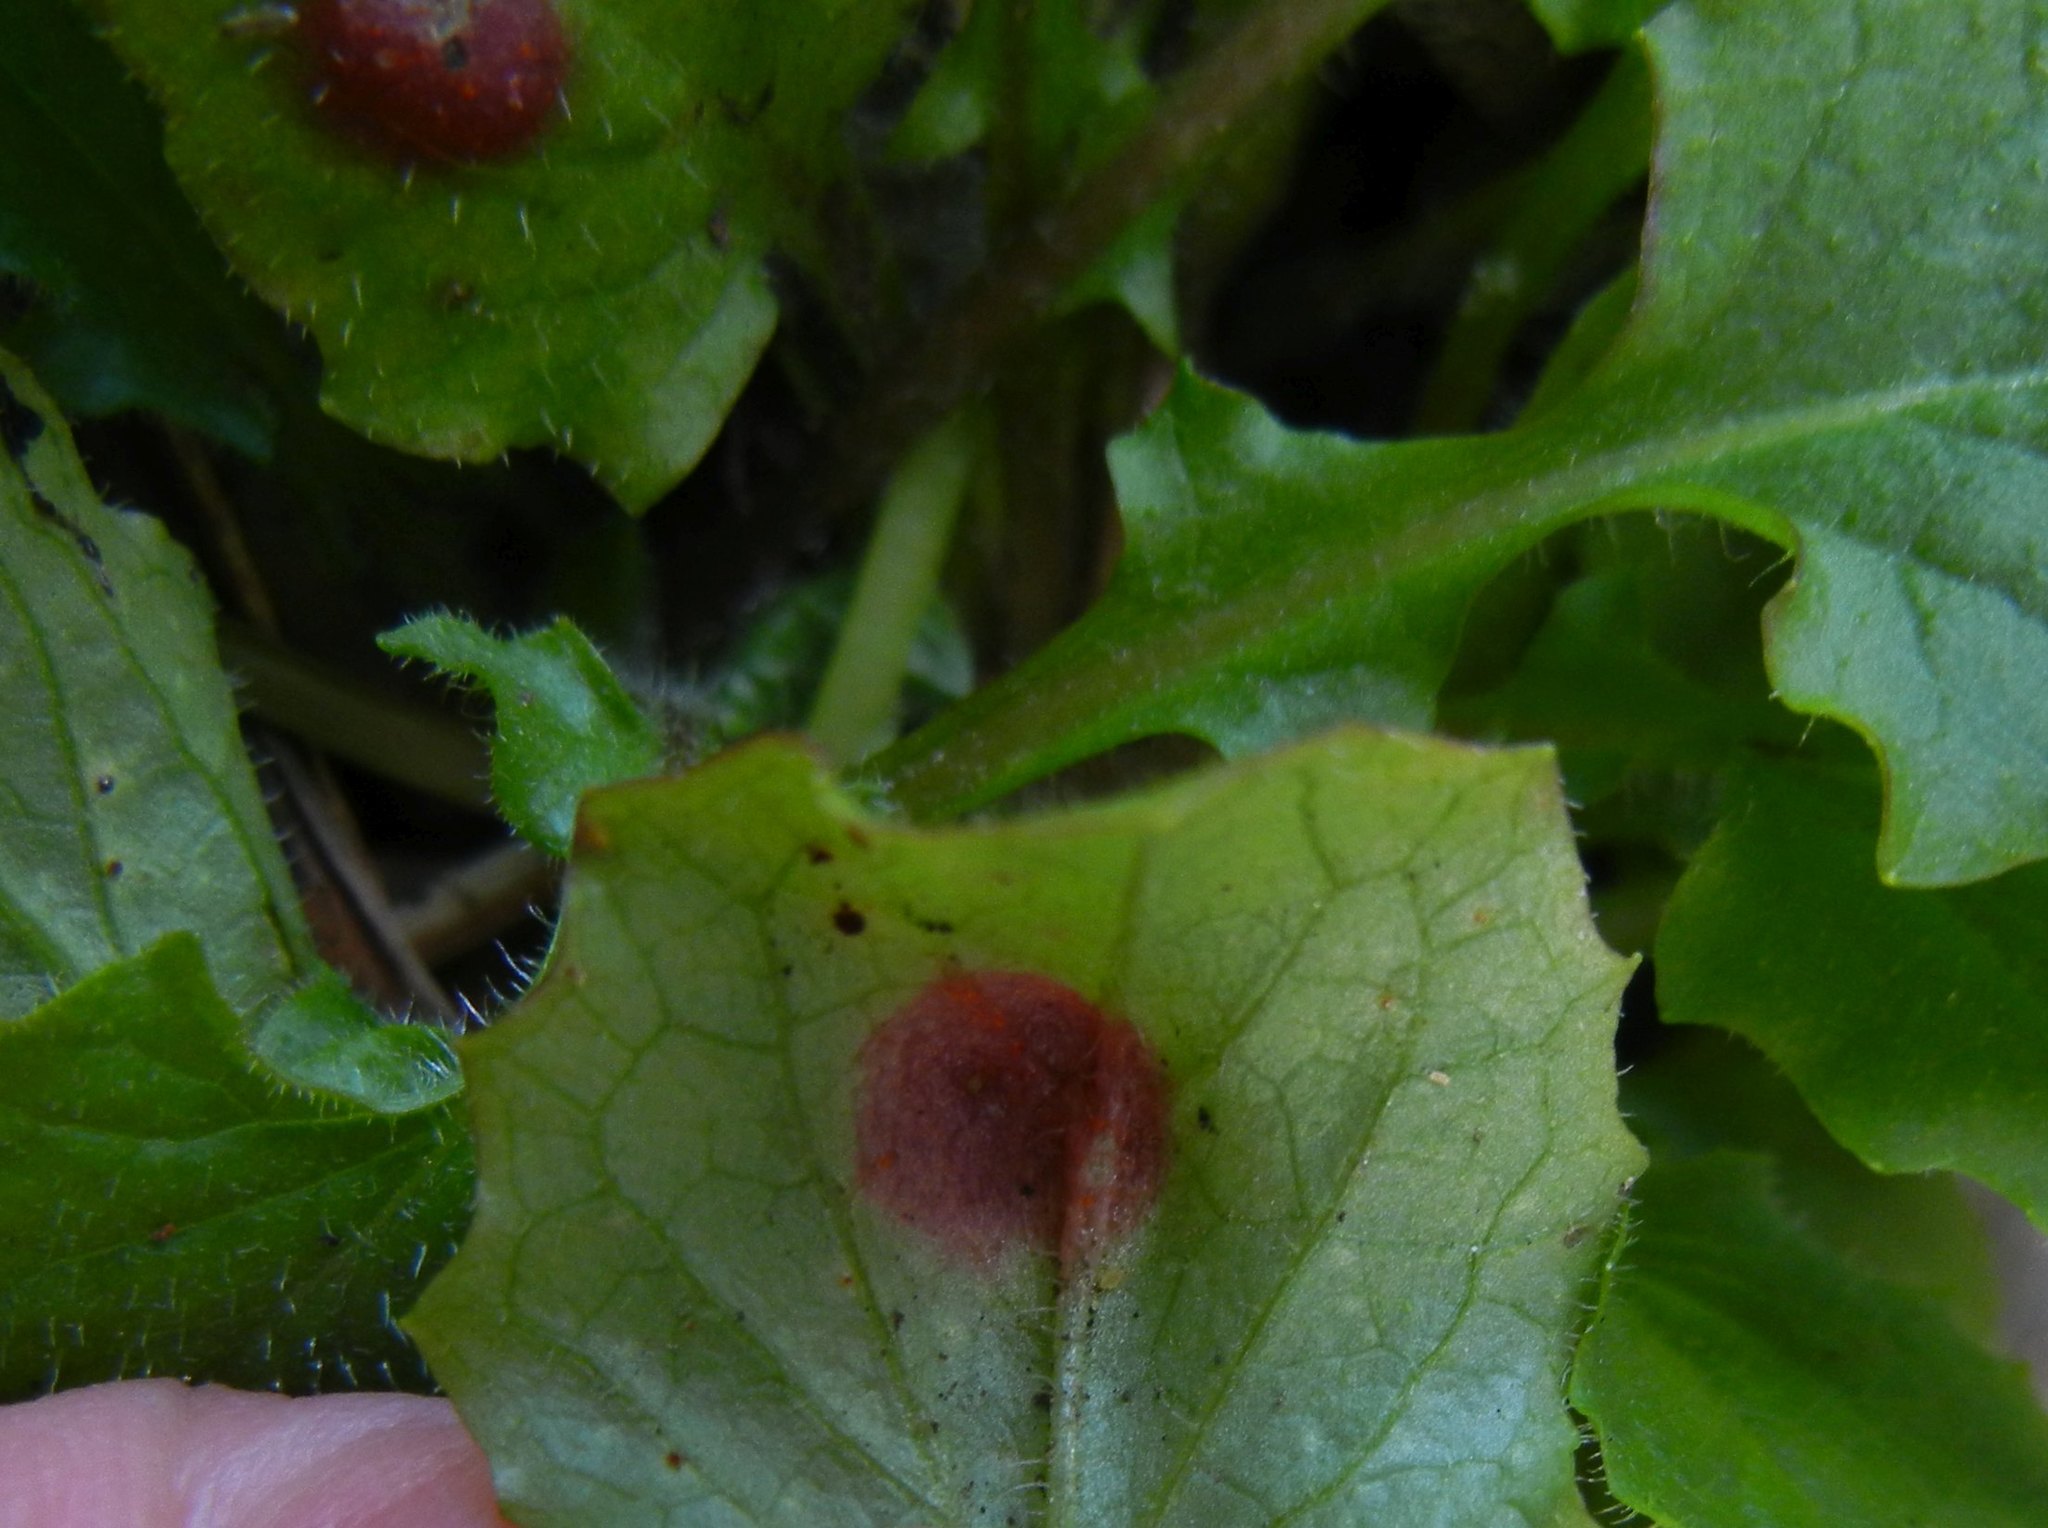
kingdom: Fungi
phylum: Basidiomycota
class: Pucciniomycetes
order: Pucciniales
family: Pucciniaceae
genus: Puccinia
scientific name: Puccinia lapsanae
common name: Nipplewort rust
